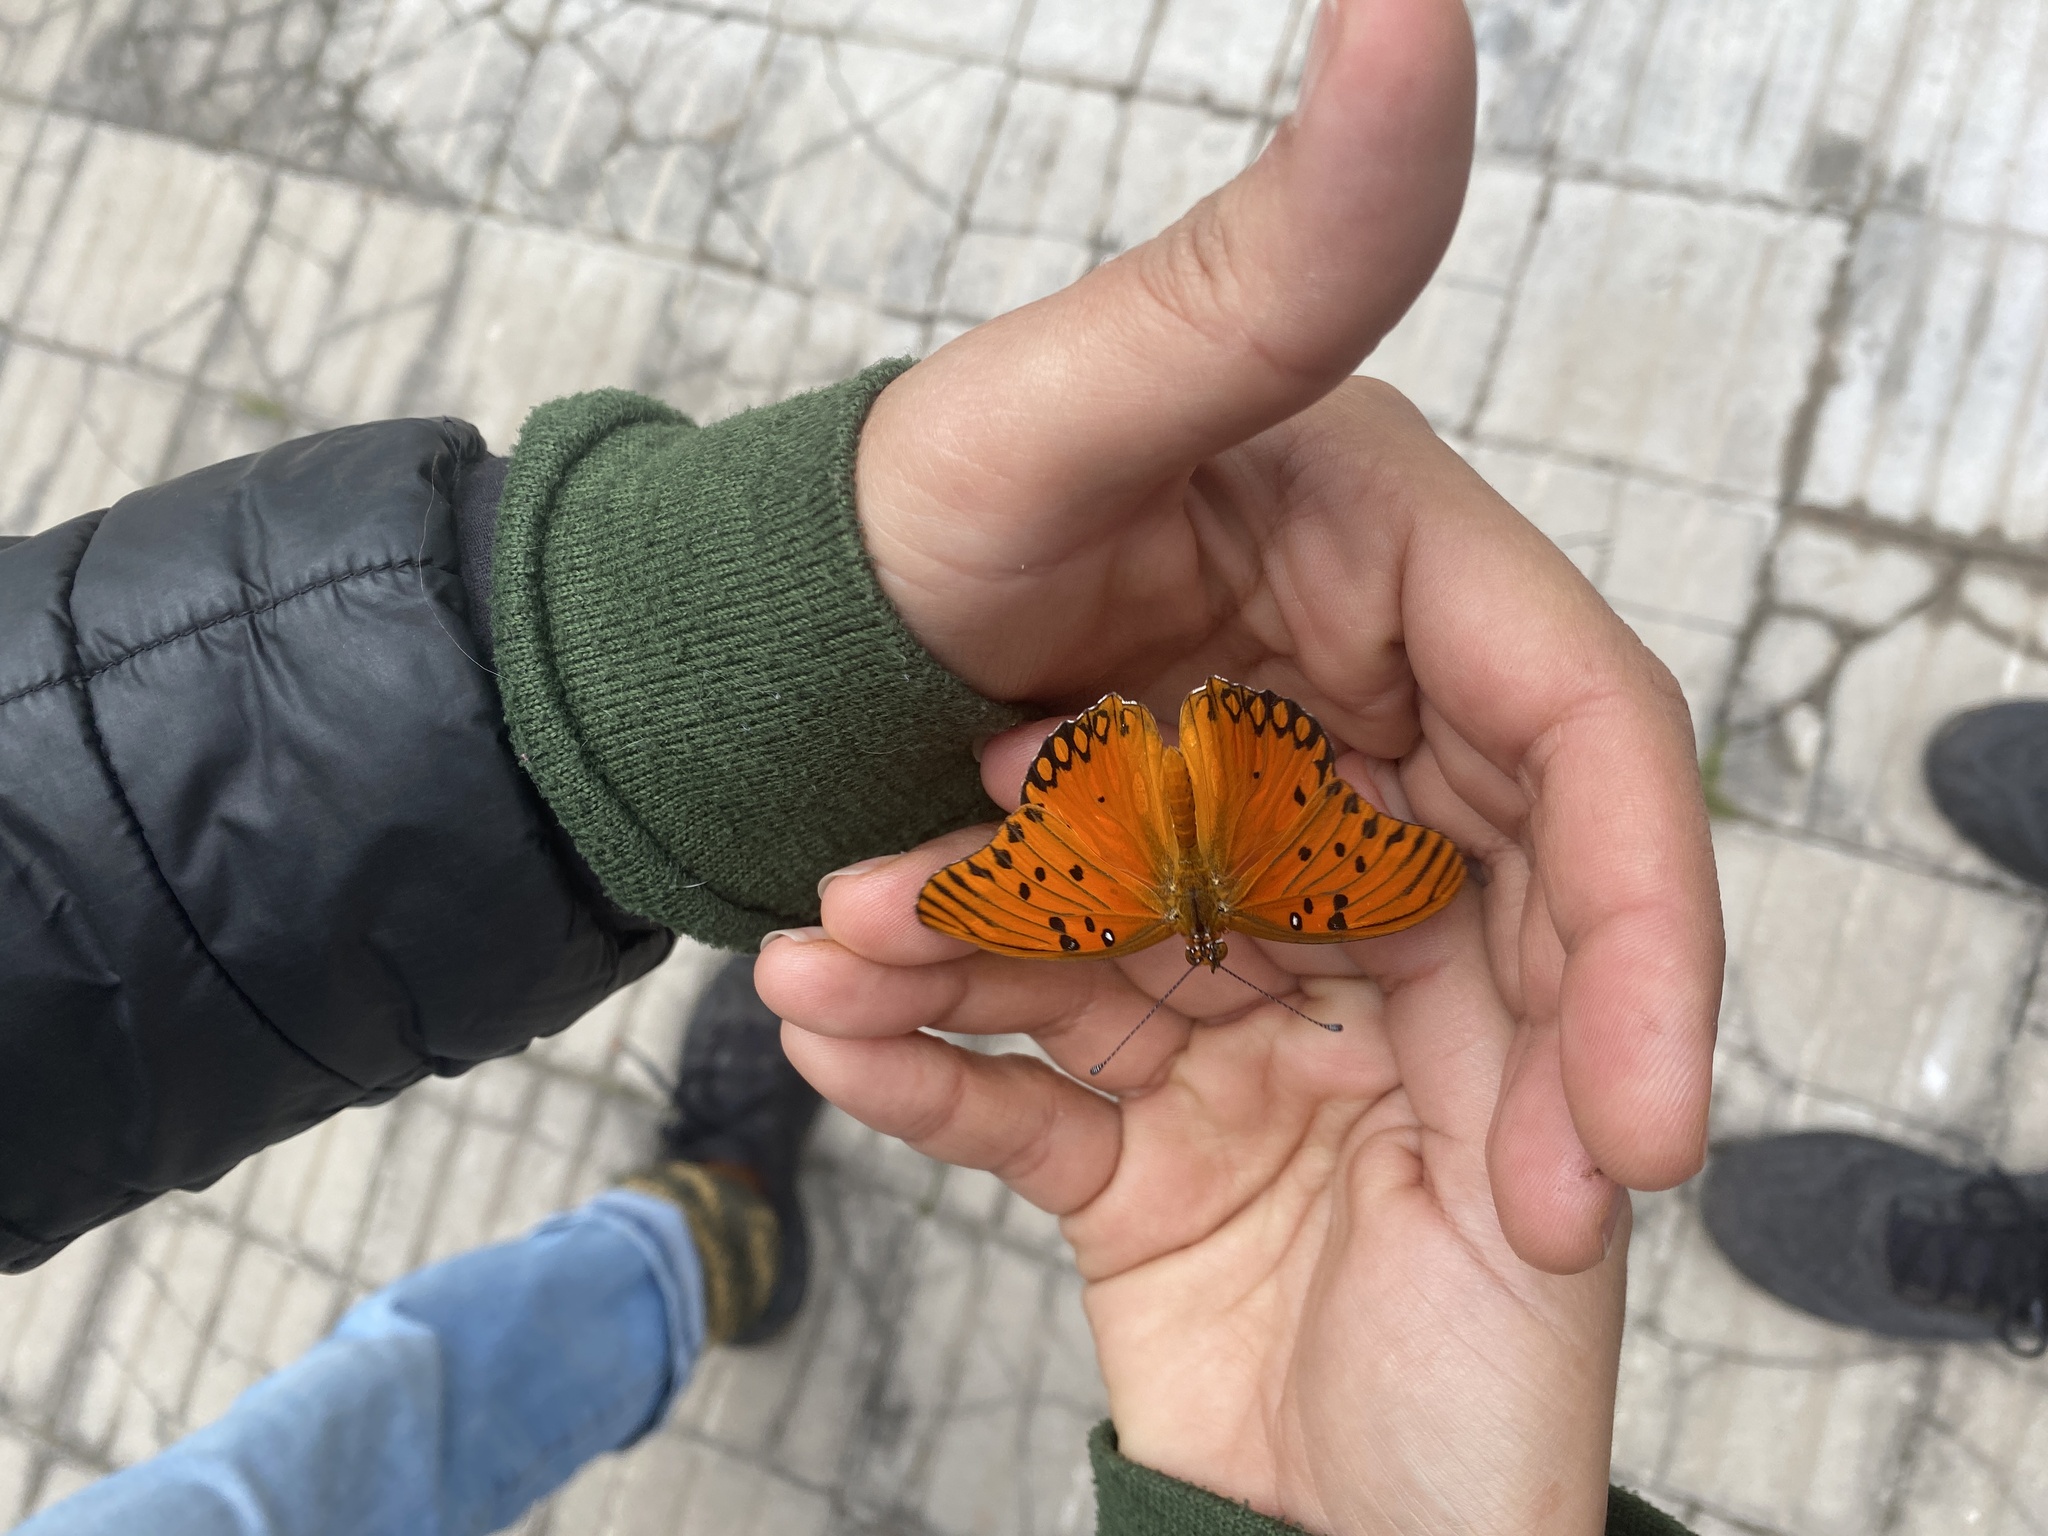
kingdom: Animalia
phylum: Arthropoda
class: Insecta
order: Lepidoptera
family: Nymphalidae
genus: Dione
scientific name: Dione vanillae
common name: Gulf fritillary
